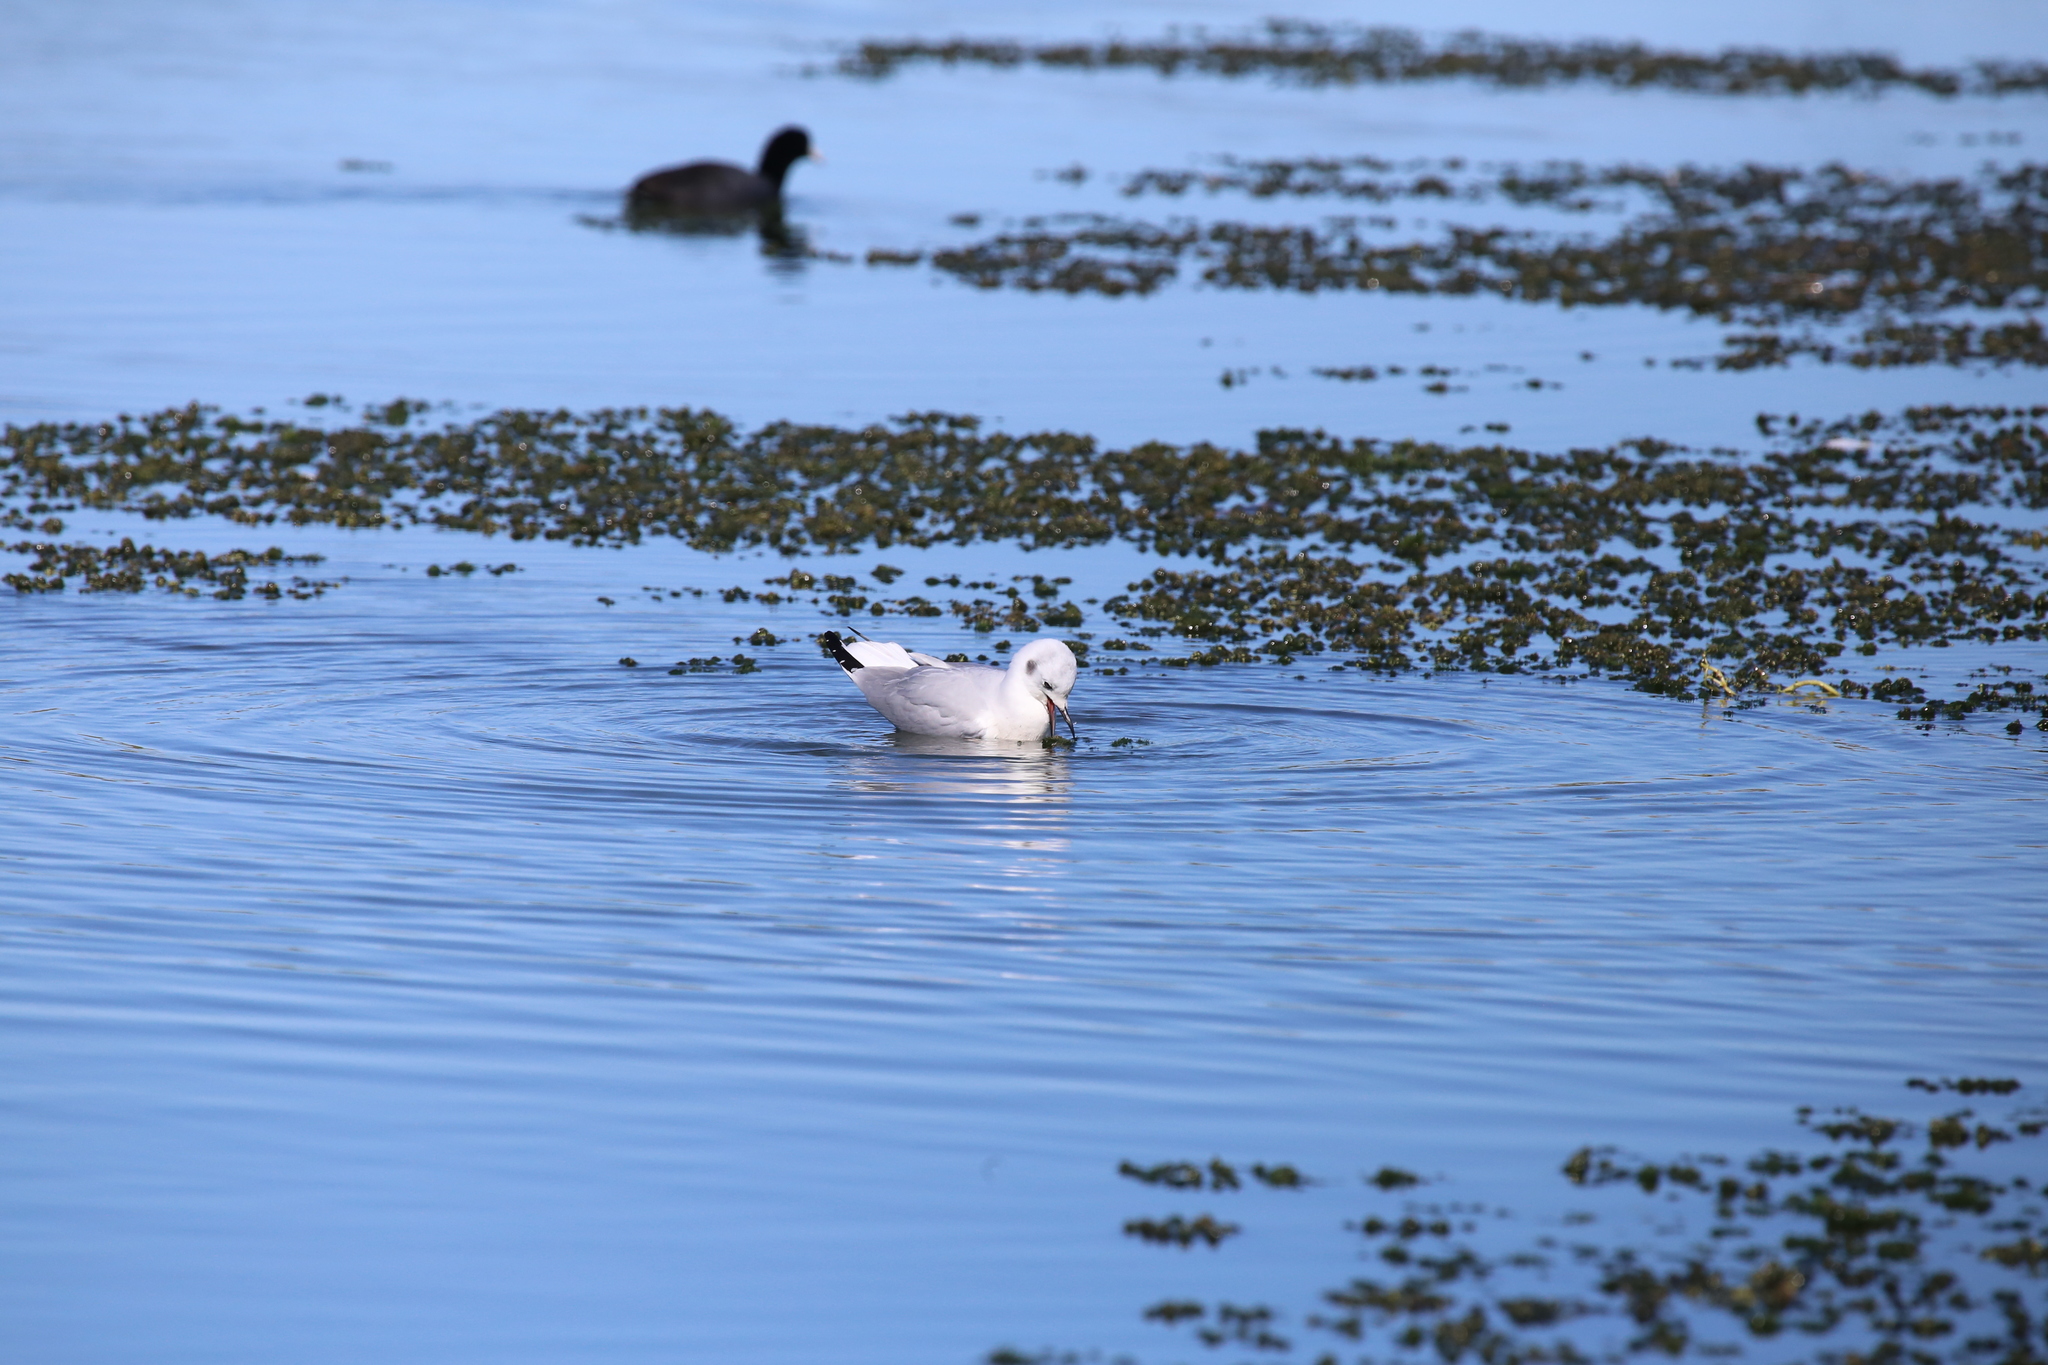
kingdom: Animalia
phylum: Chordata
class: Aves
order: Charadriiformes
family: Laridae
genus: Chroicocephalus
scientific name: Chroicocephalus philadelphia
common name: Bonaparte's gull
